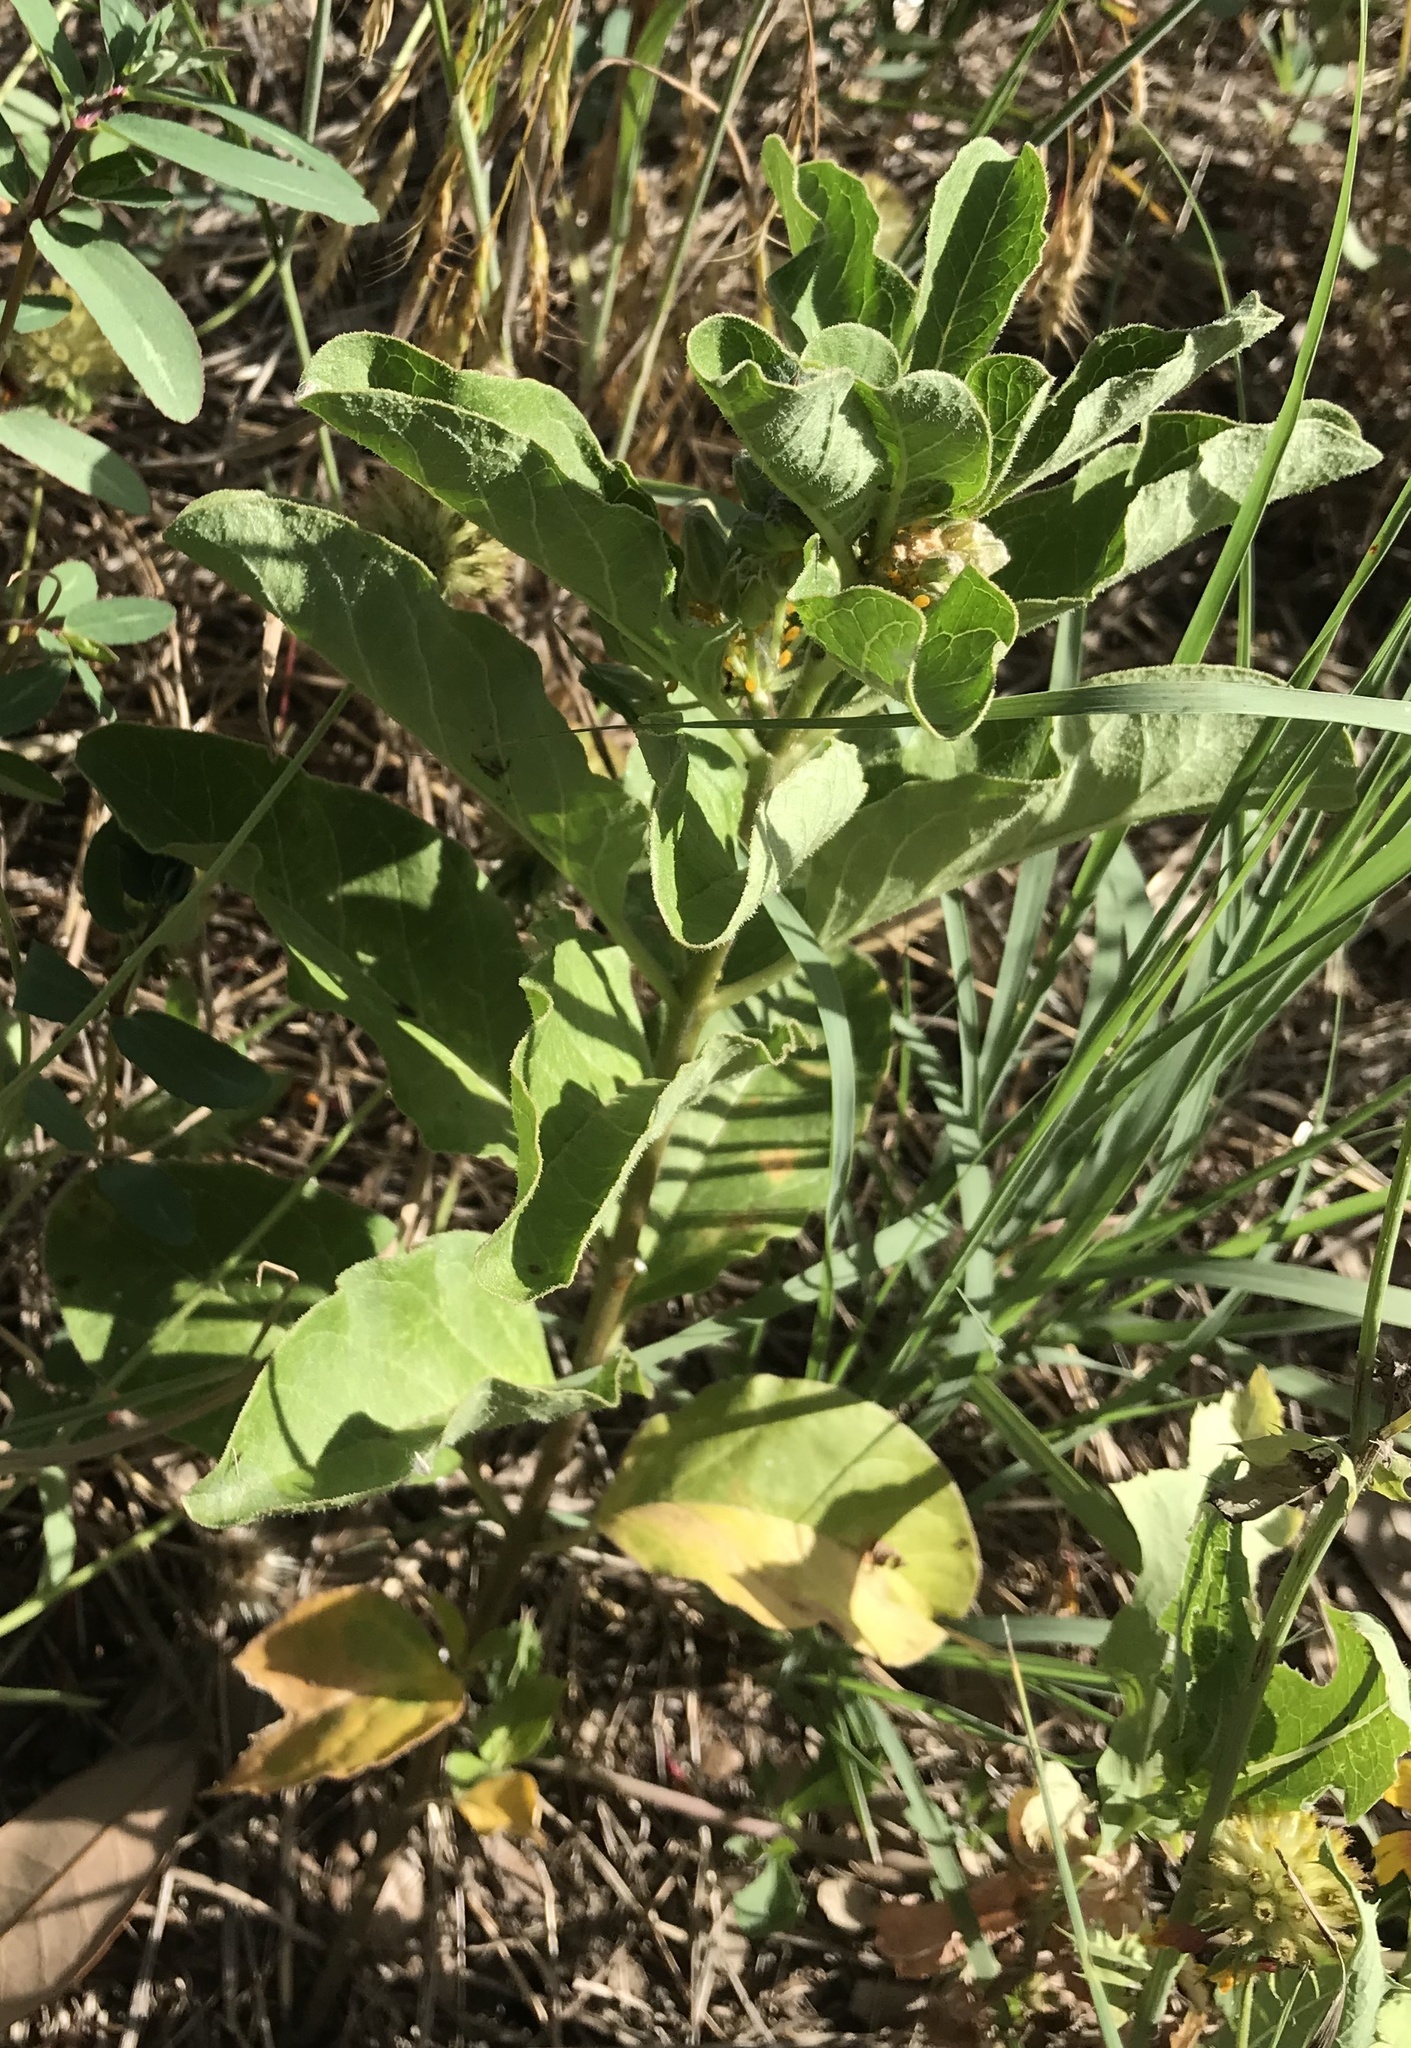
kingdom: Plantae
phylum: Tracheophyta
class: Magnoliopsida
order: Gentianales
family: Apocynaceae
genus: Asclepias
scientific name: Asclepias oenotheroides
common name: Zizotes milkweed
